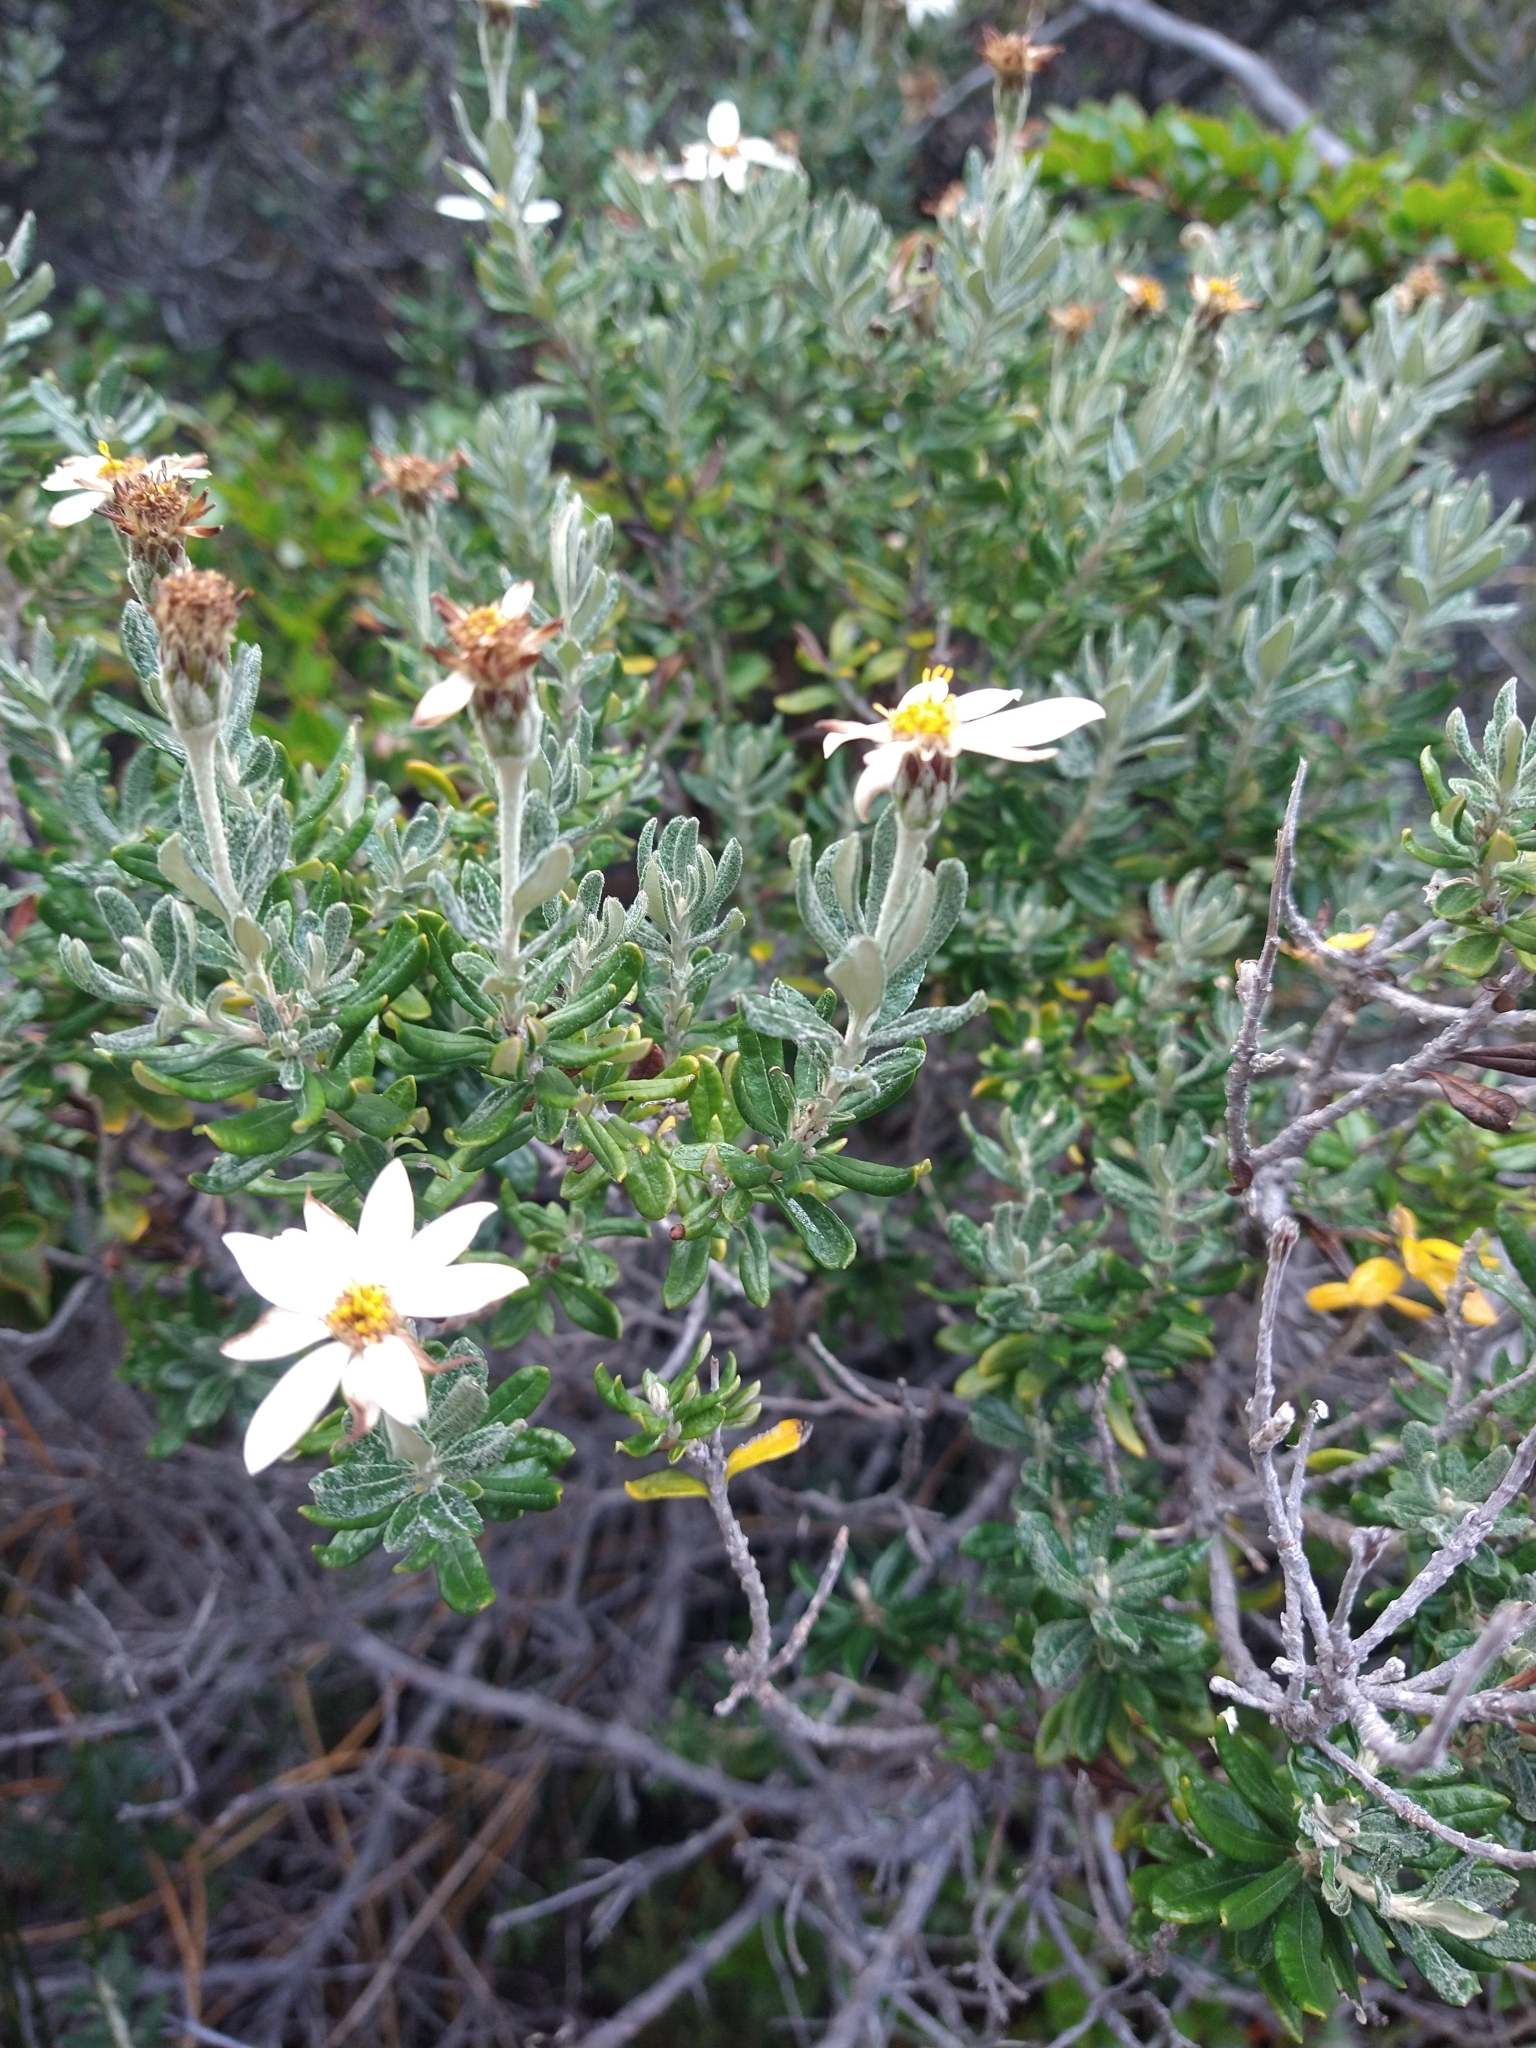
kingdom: Plantae
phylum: Tracheophyta
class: Magnoliopsida
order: Asterales
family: Asteraceae
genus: Chiliotrichum
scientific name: Chiliotrichum diffusum
